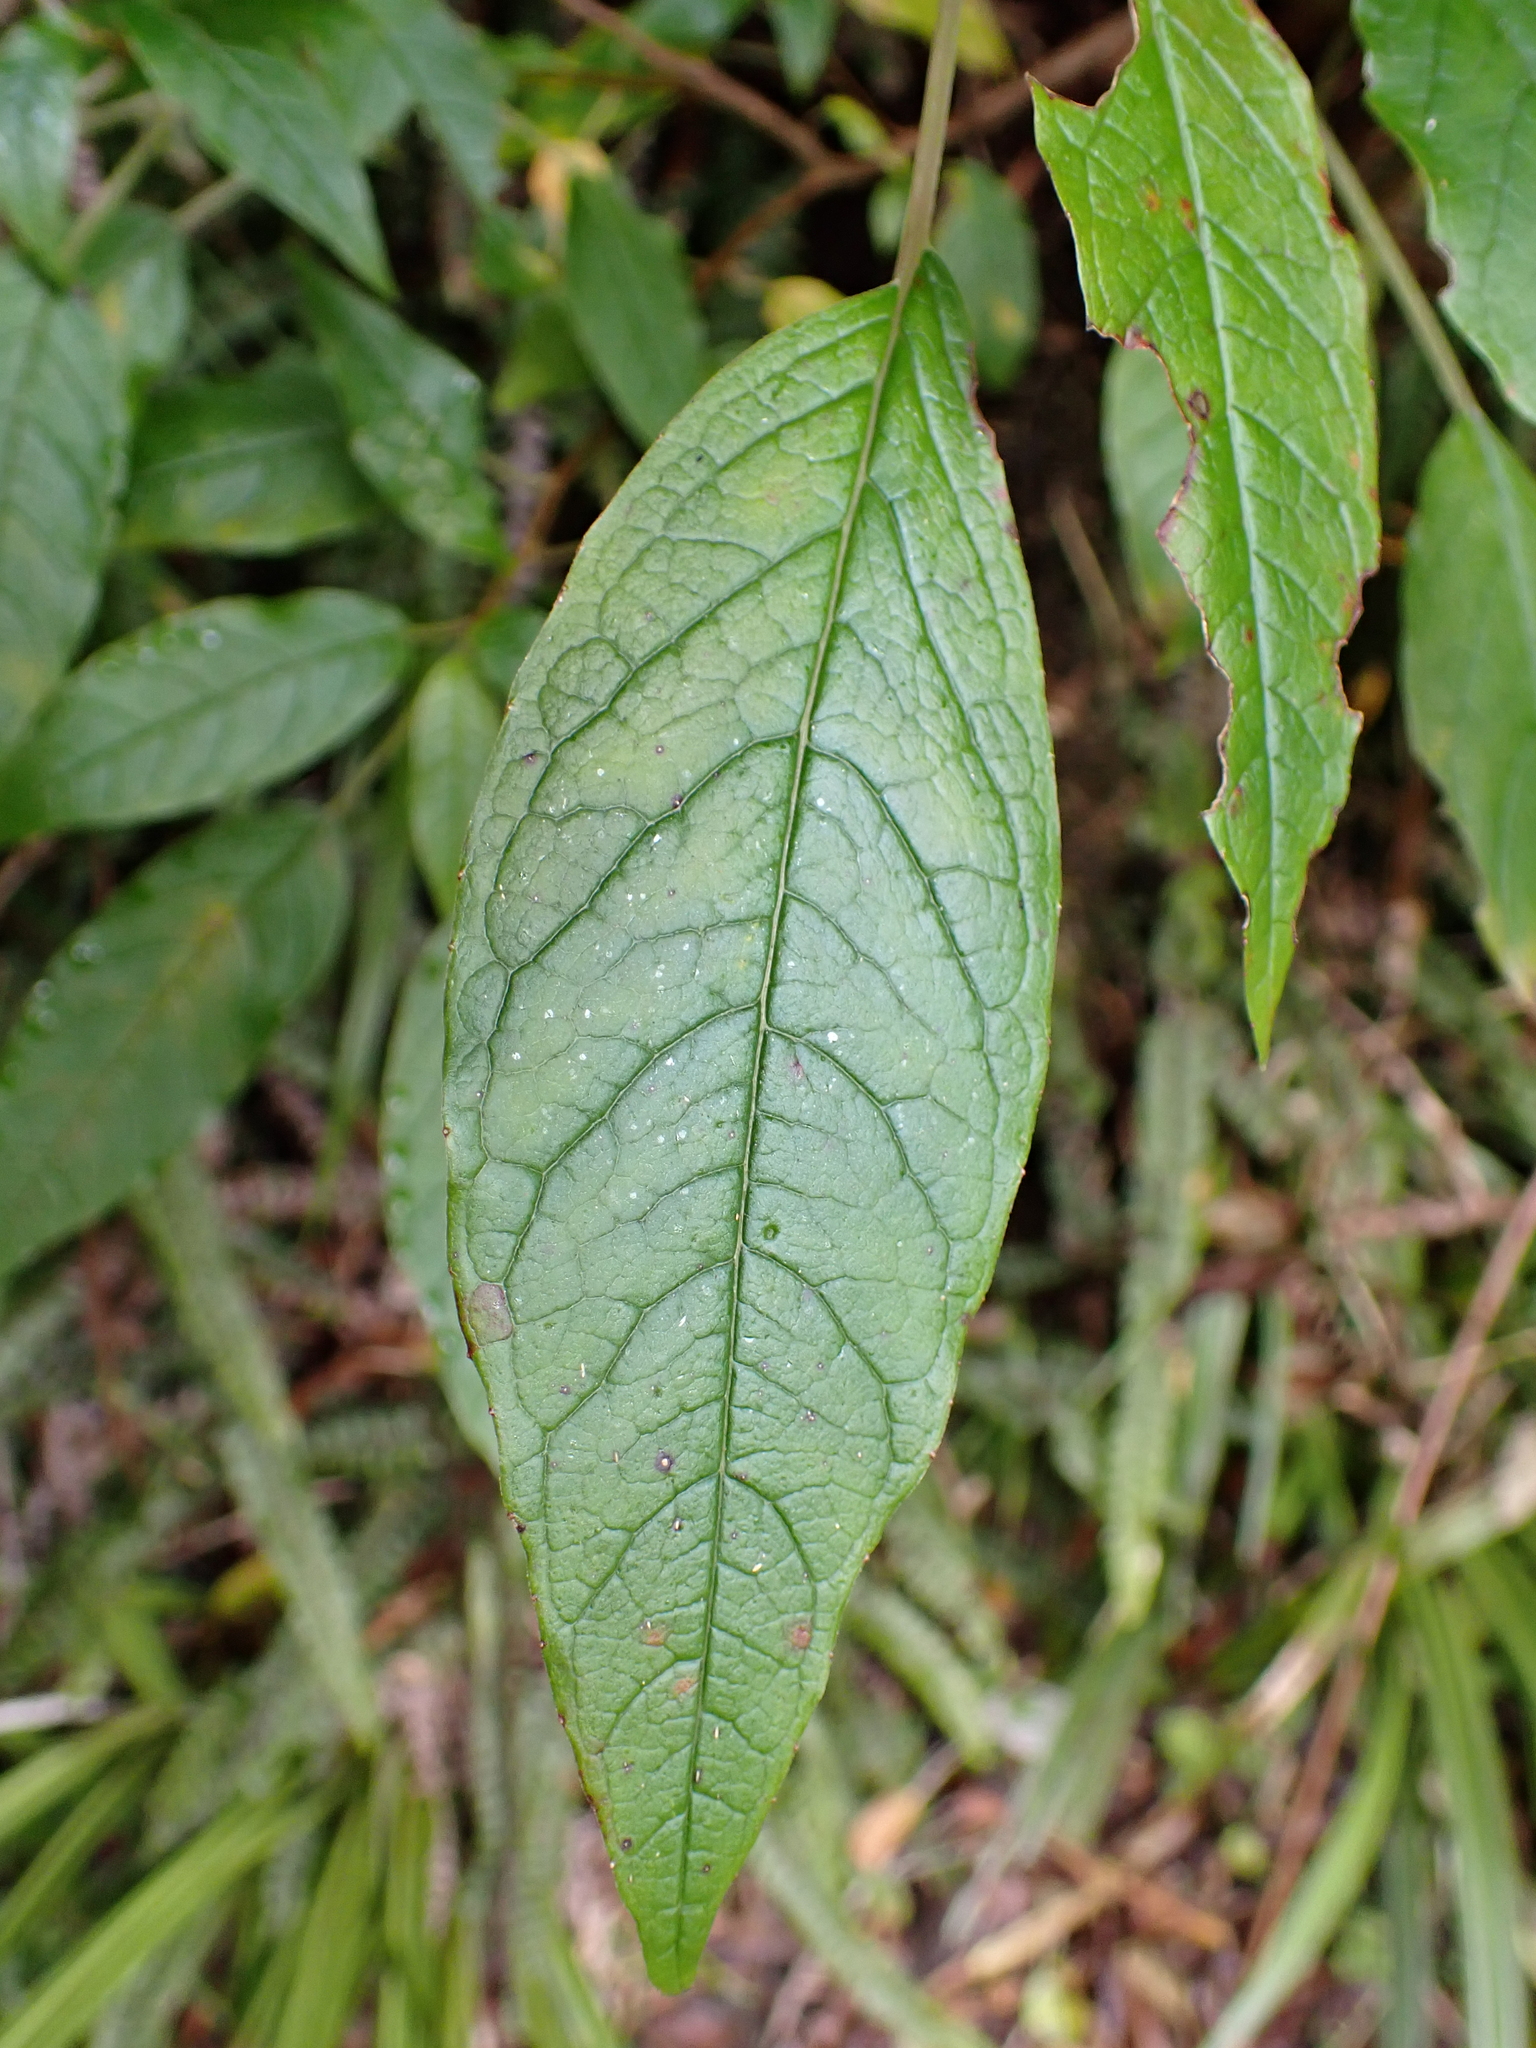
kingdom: Plantae
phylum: Tracheophyta
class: Magnoliopsida
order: Myrtales
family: Onagraceae
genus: Fuchsia
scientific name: Fuchsia excorticata
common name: Tree fuchsia
